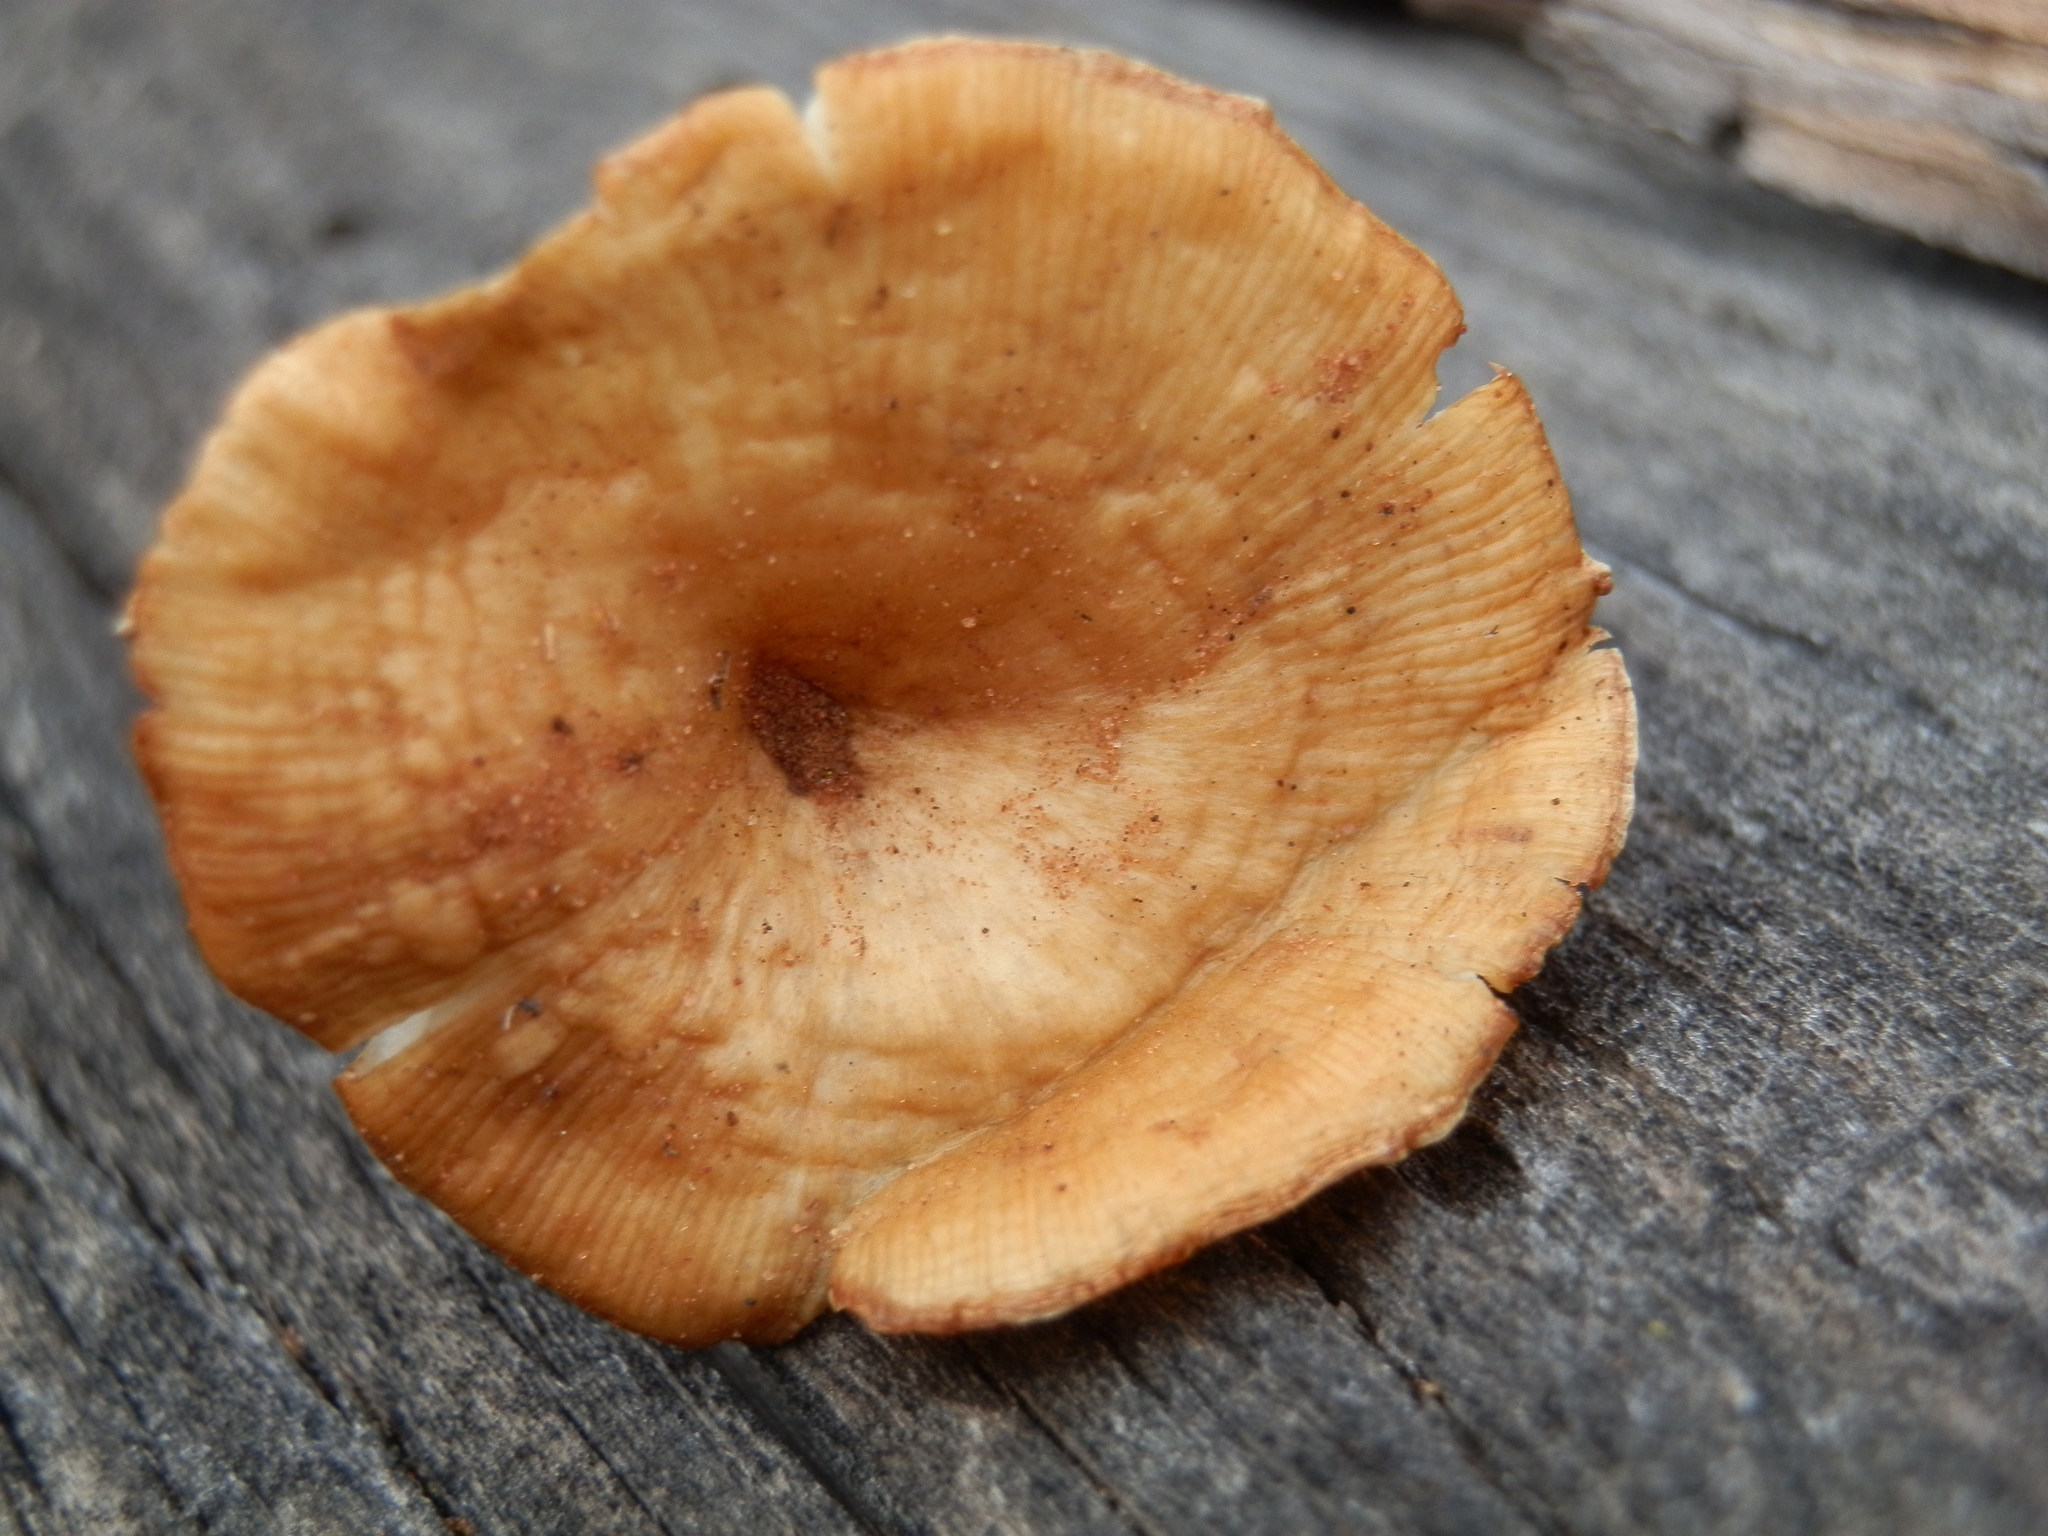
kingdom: Fungi
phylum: Basidiomycota
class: Agaricomycetes
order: Agaricales
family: Tricholomataceae
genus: Infundibulicybe
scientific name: Infundibulicybe squamulosa
